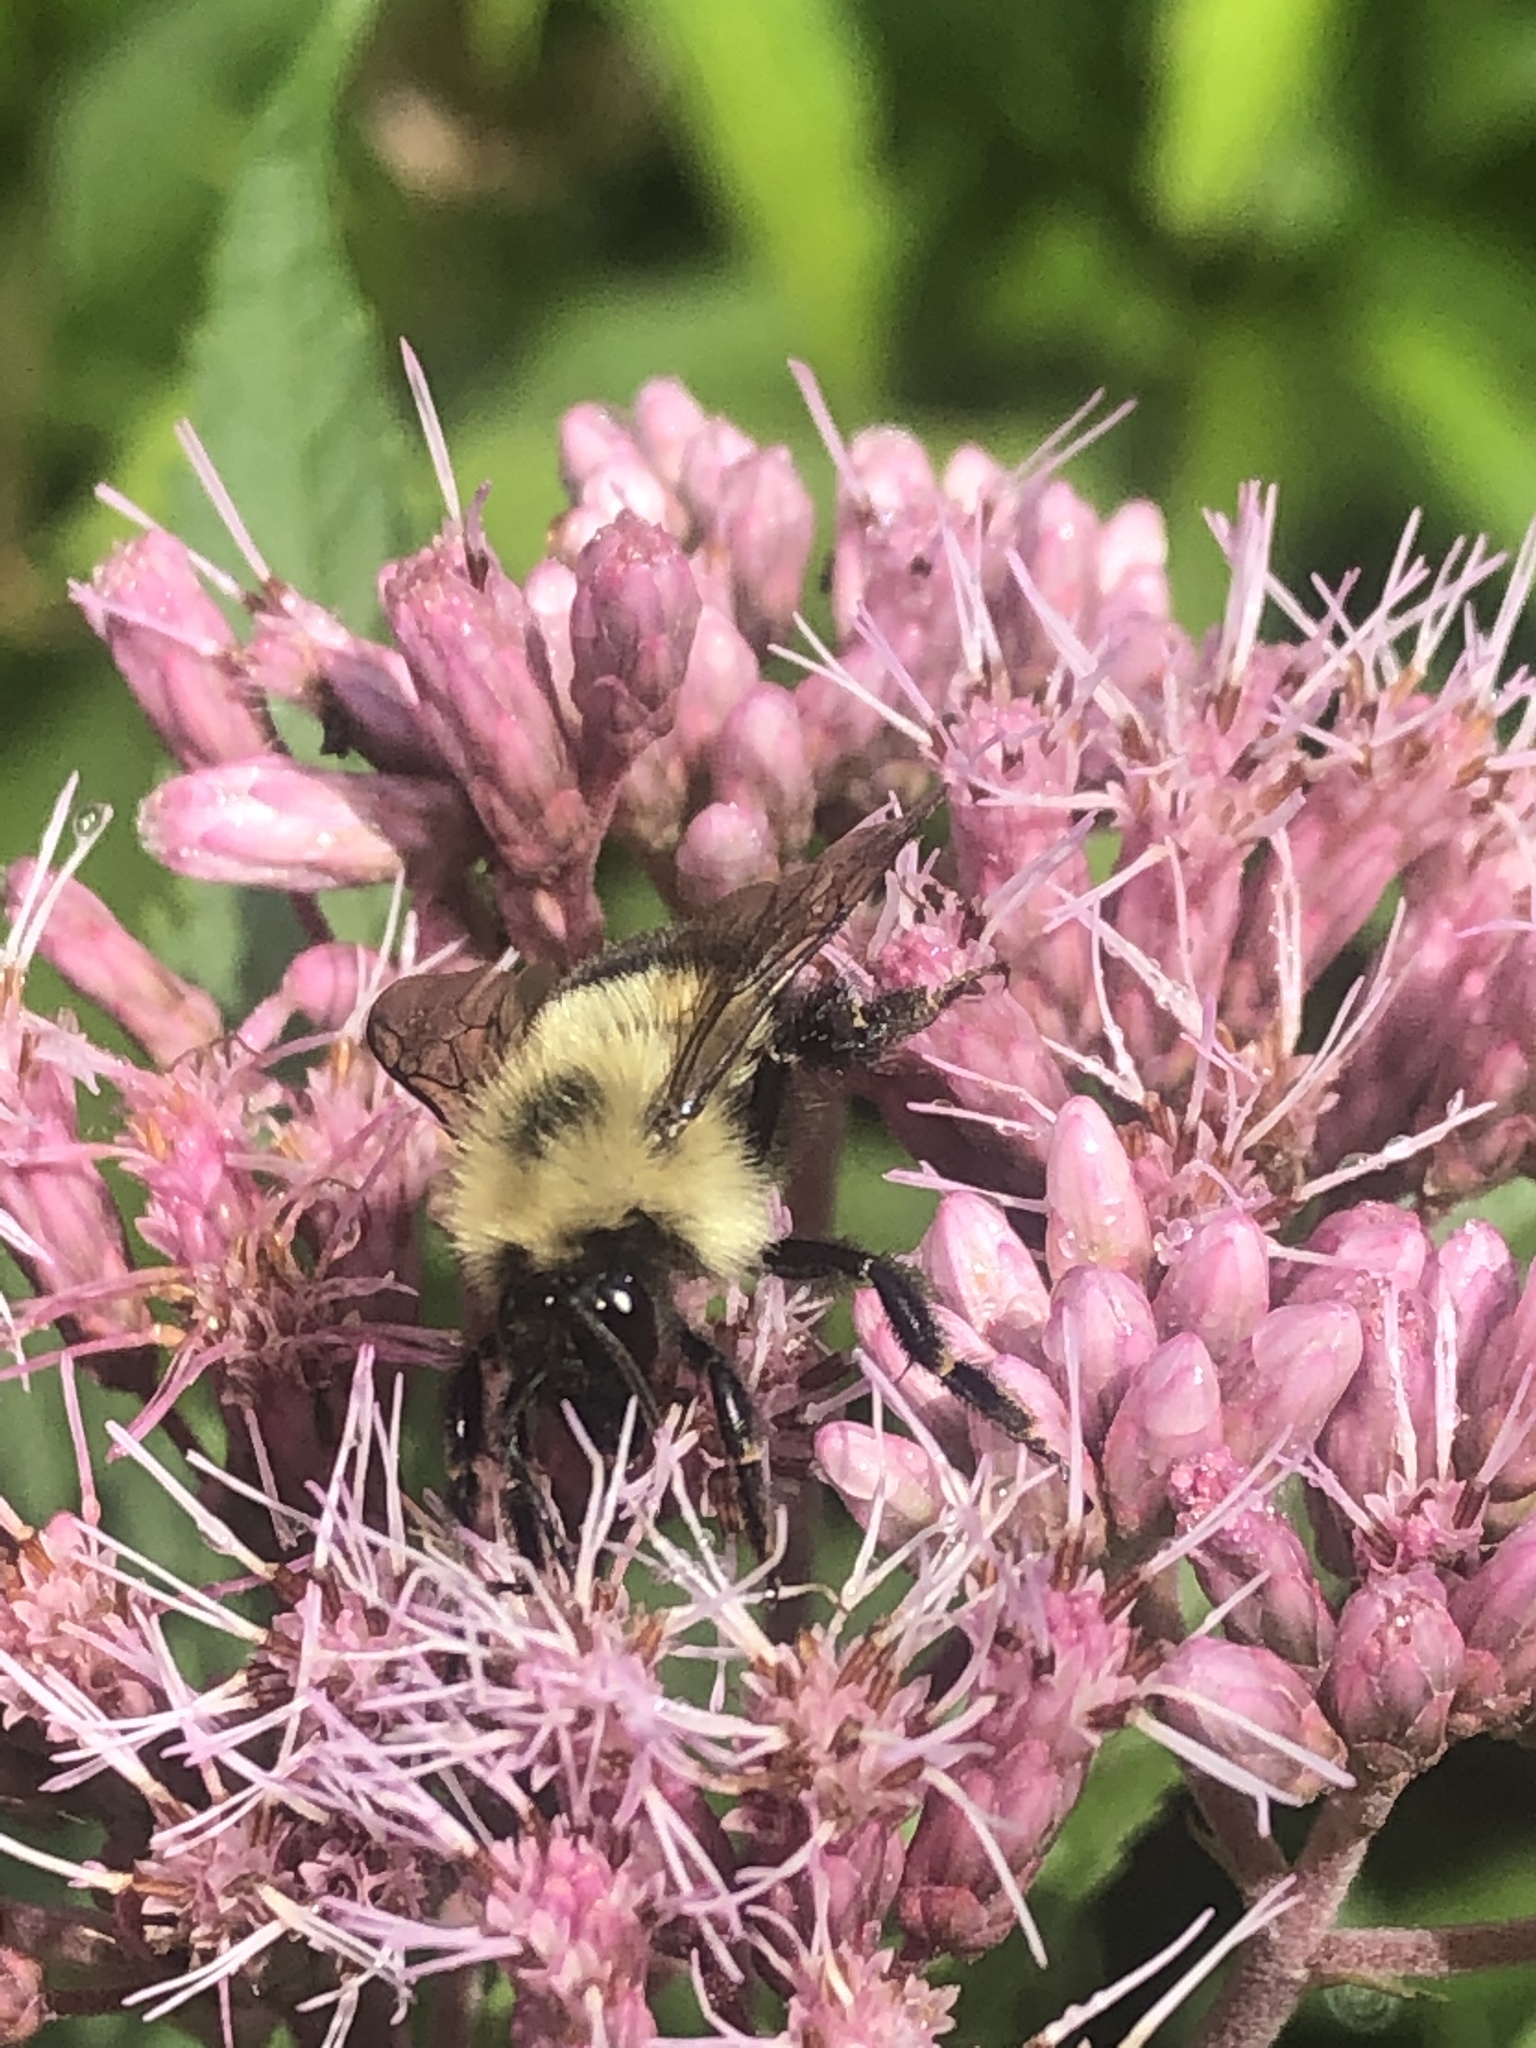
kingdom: Animalia
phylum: Arthropoda
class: Insecta
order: Hymenoptera
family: Apidae
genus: Bombus
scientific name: Bombus vagans
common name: Half-black bumble bee
